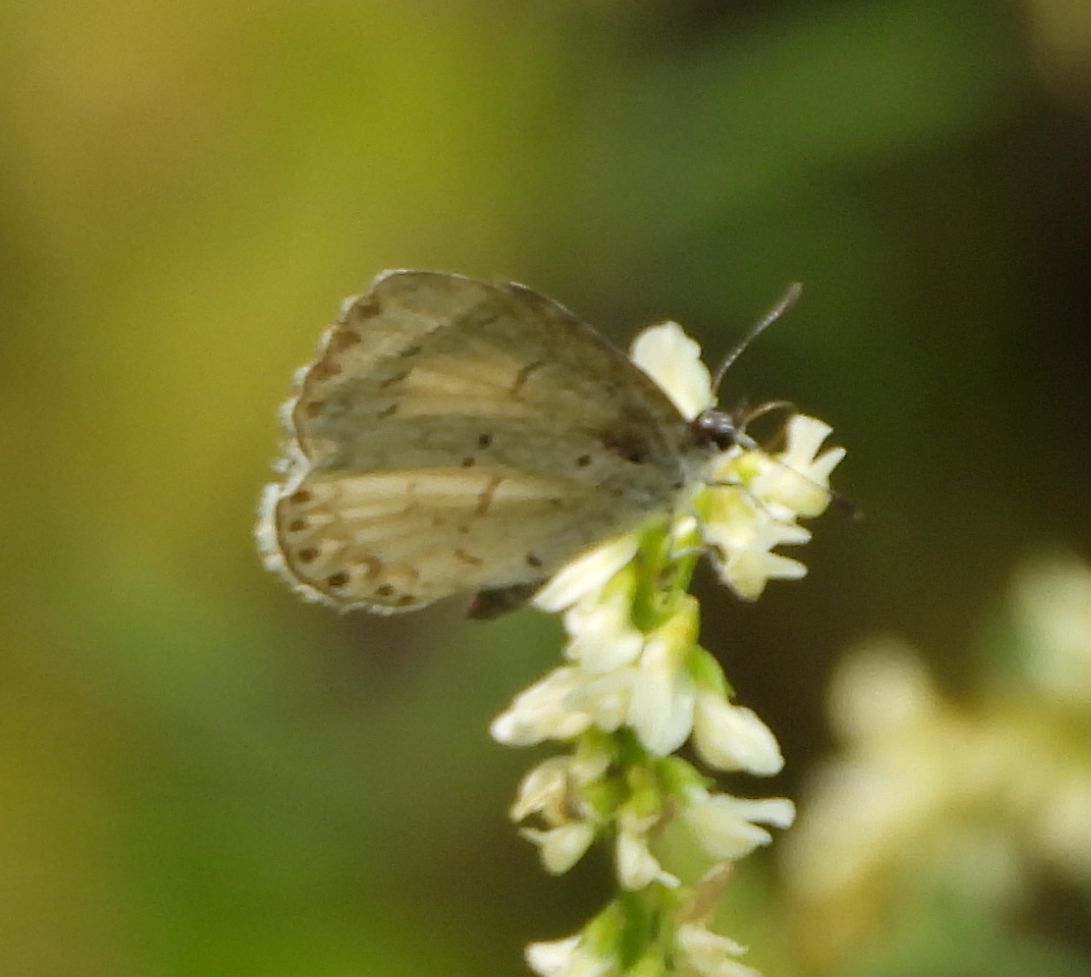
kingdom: Animalia
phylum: Arthropoda
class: Insecta
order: Lepidoptera
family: Lycaenidae
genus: Celastrina
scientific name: Celastrina lucia
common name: Lucia azure
